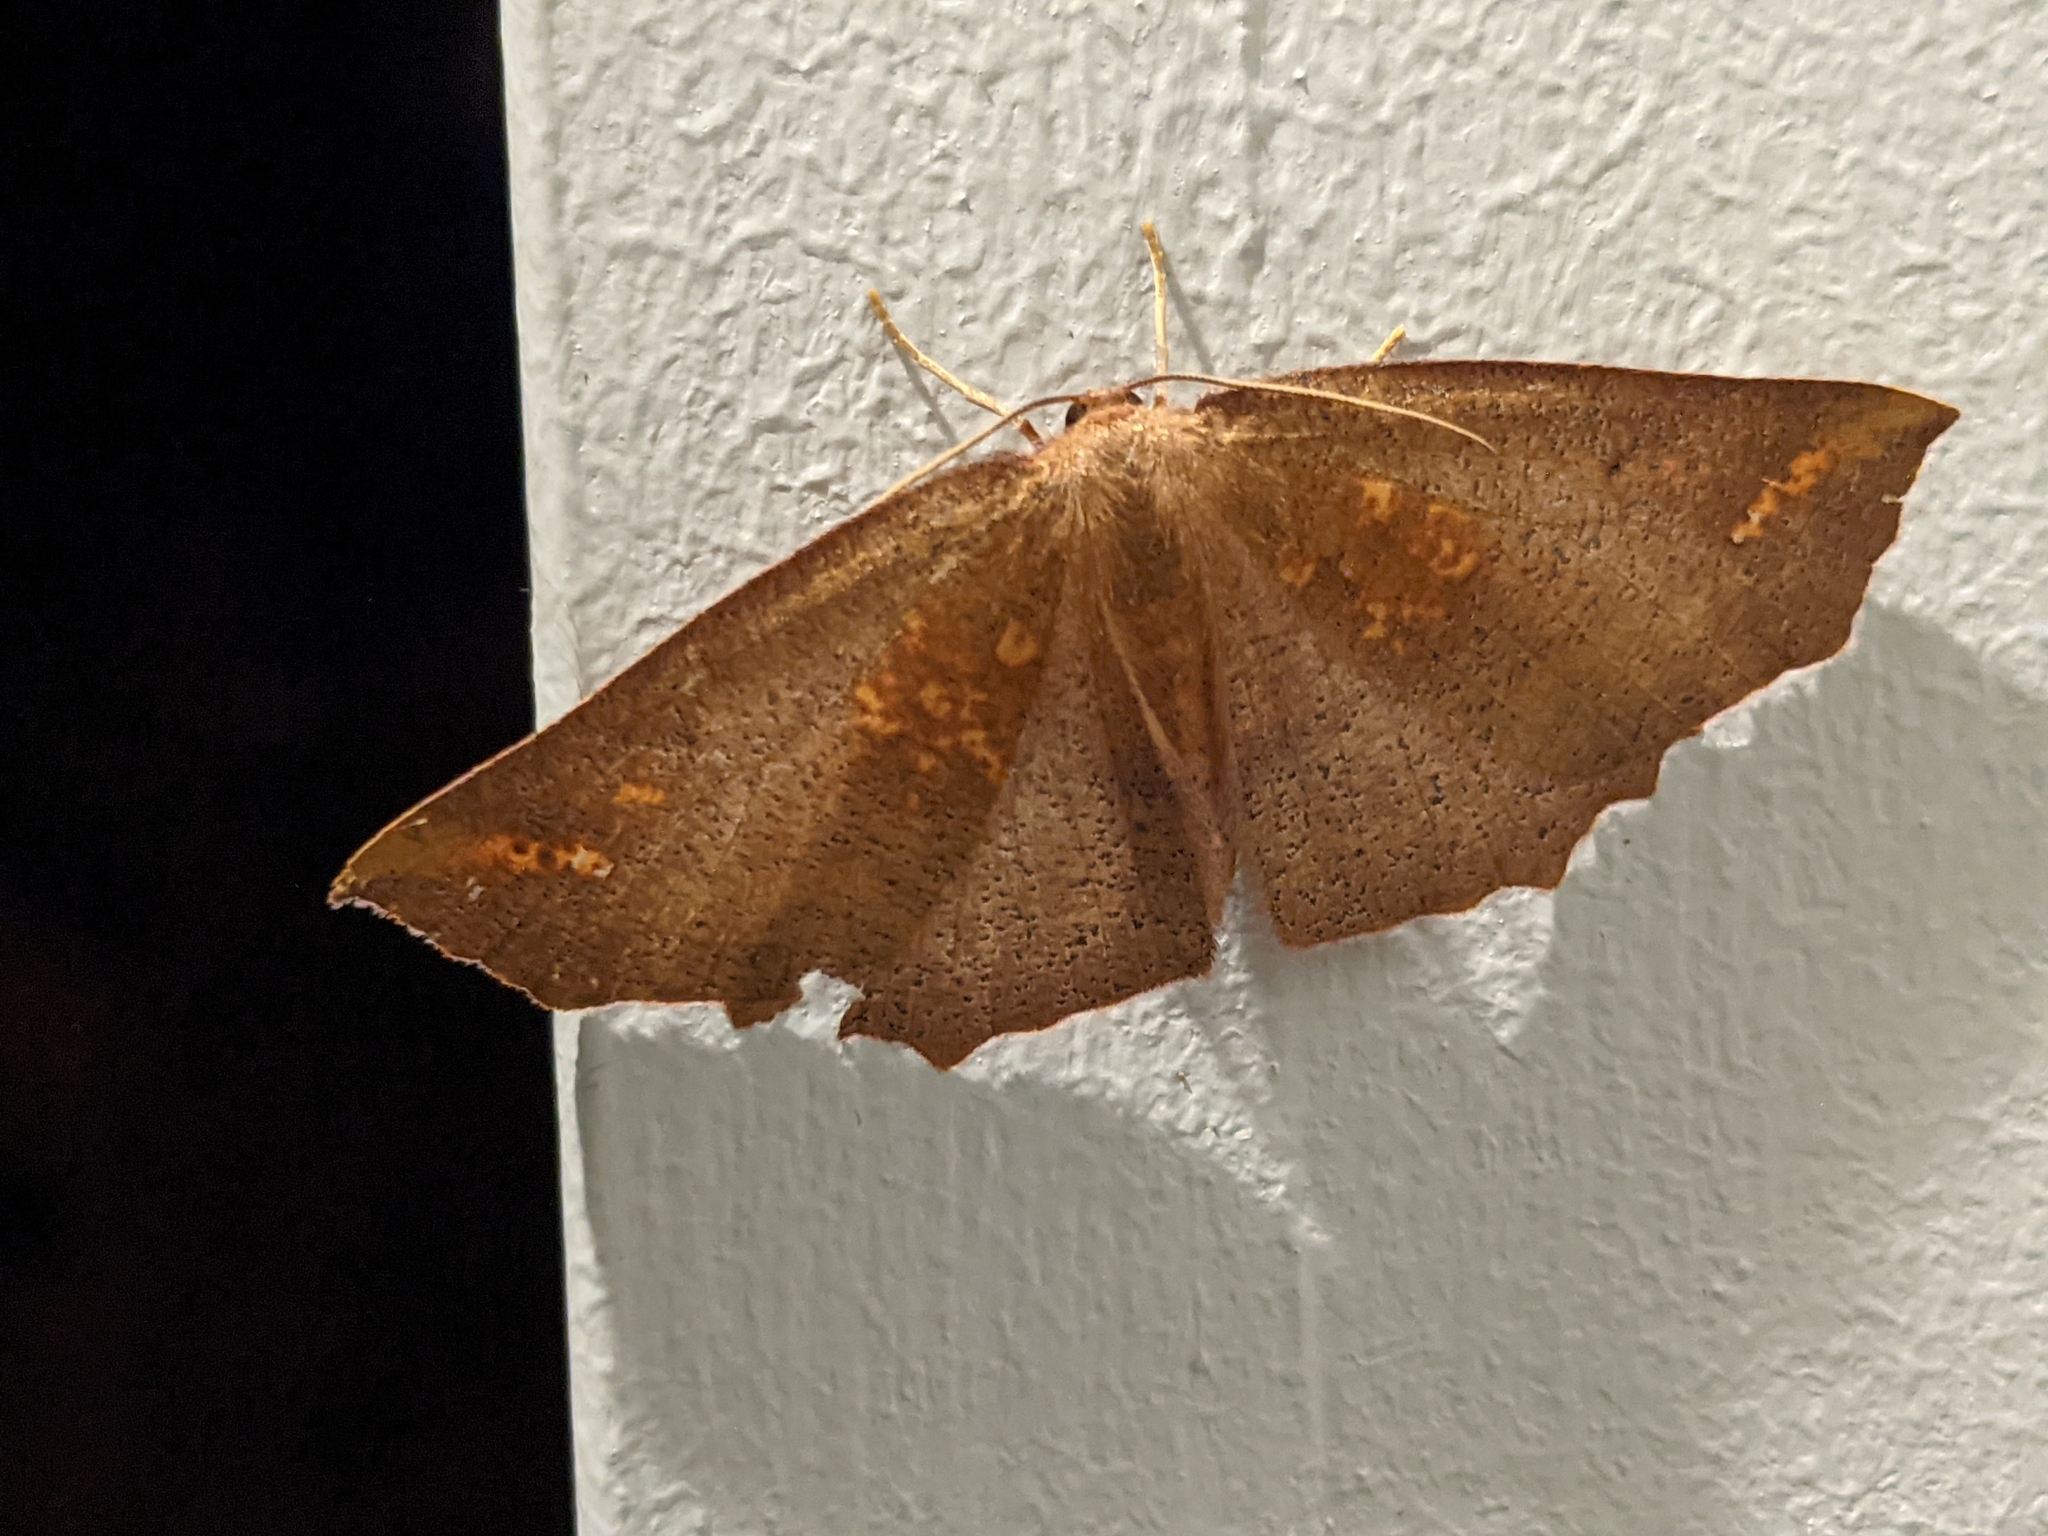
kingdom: Animalia
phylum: Arthropoda
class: Insecta
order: Lepidoptera
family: Geometridae
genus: Xyridacma
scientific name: Xyridacma ustaria
